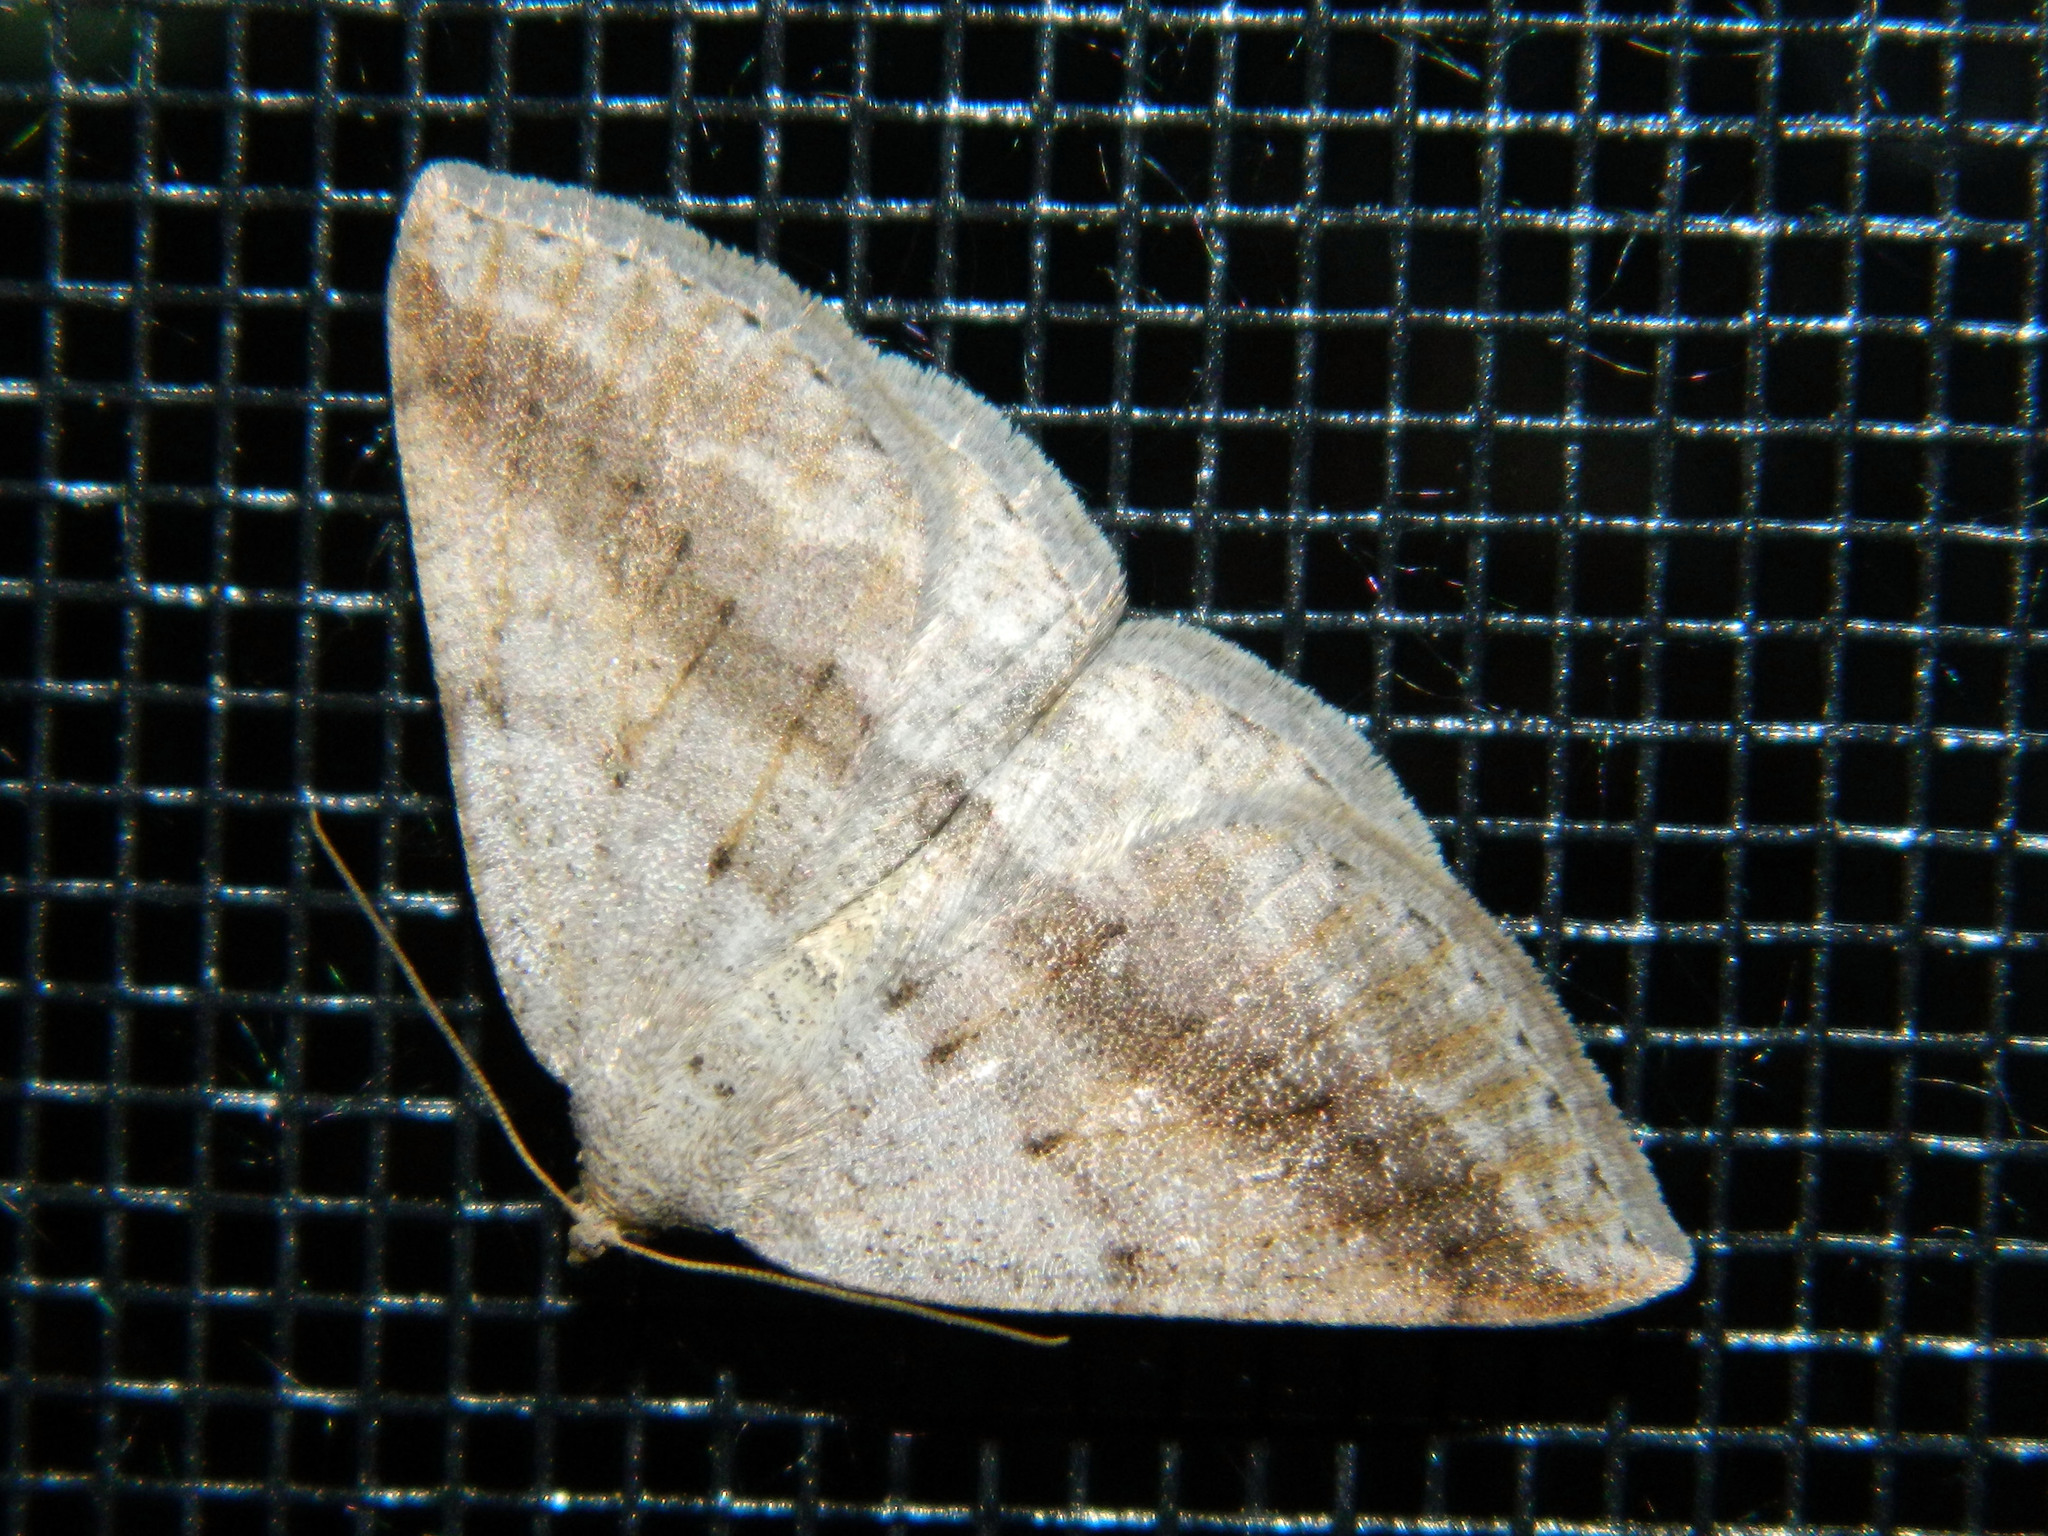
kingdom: Animalia
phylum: Arthropoda
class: Insecta
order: Lepidoptera
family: Geometridae
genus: Tacparia
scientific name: Tacparia detersata
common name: Pale alder moth
